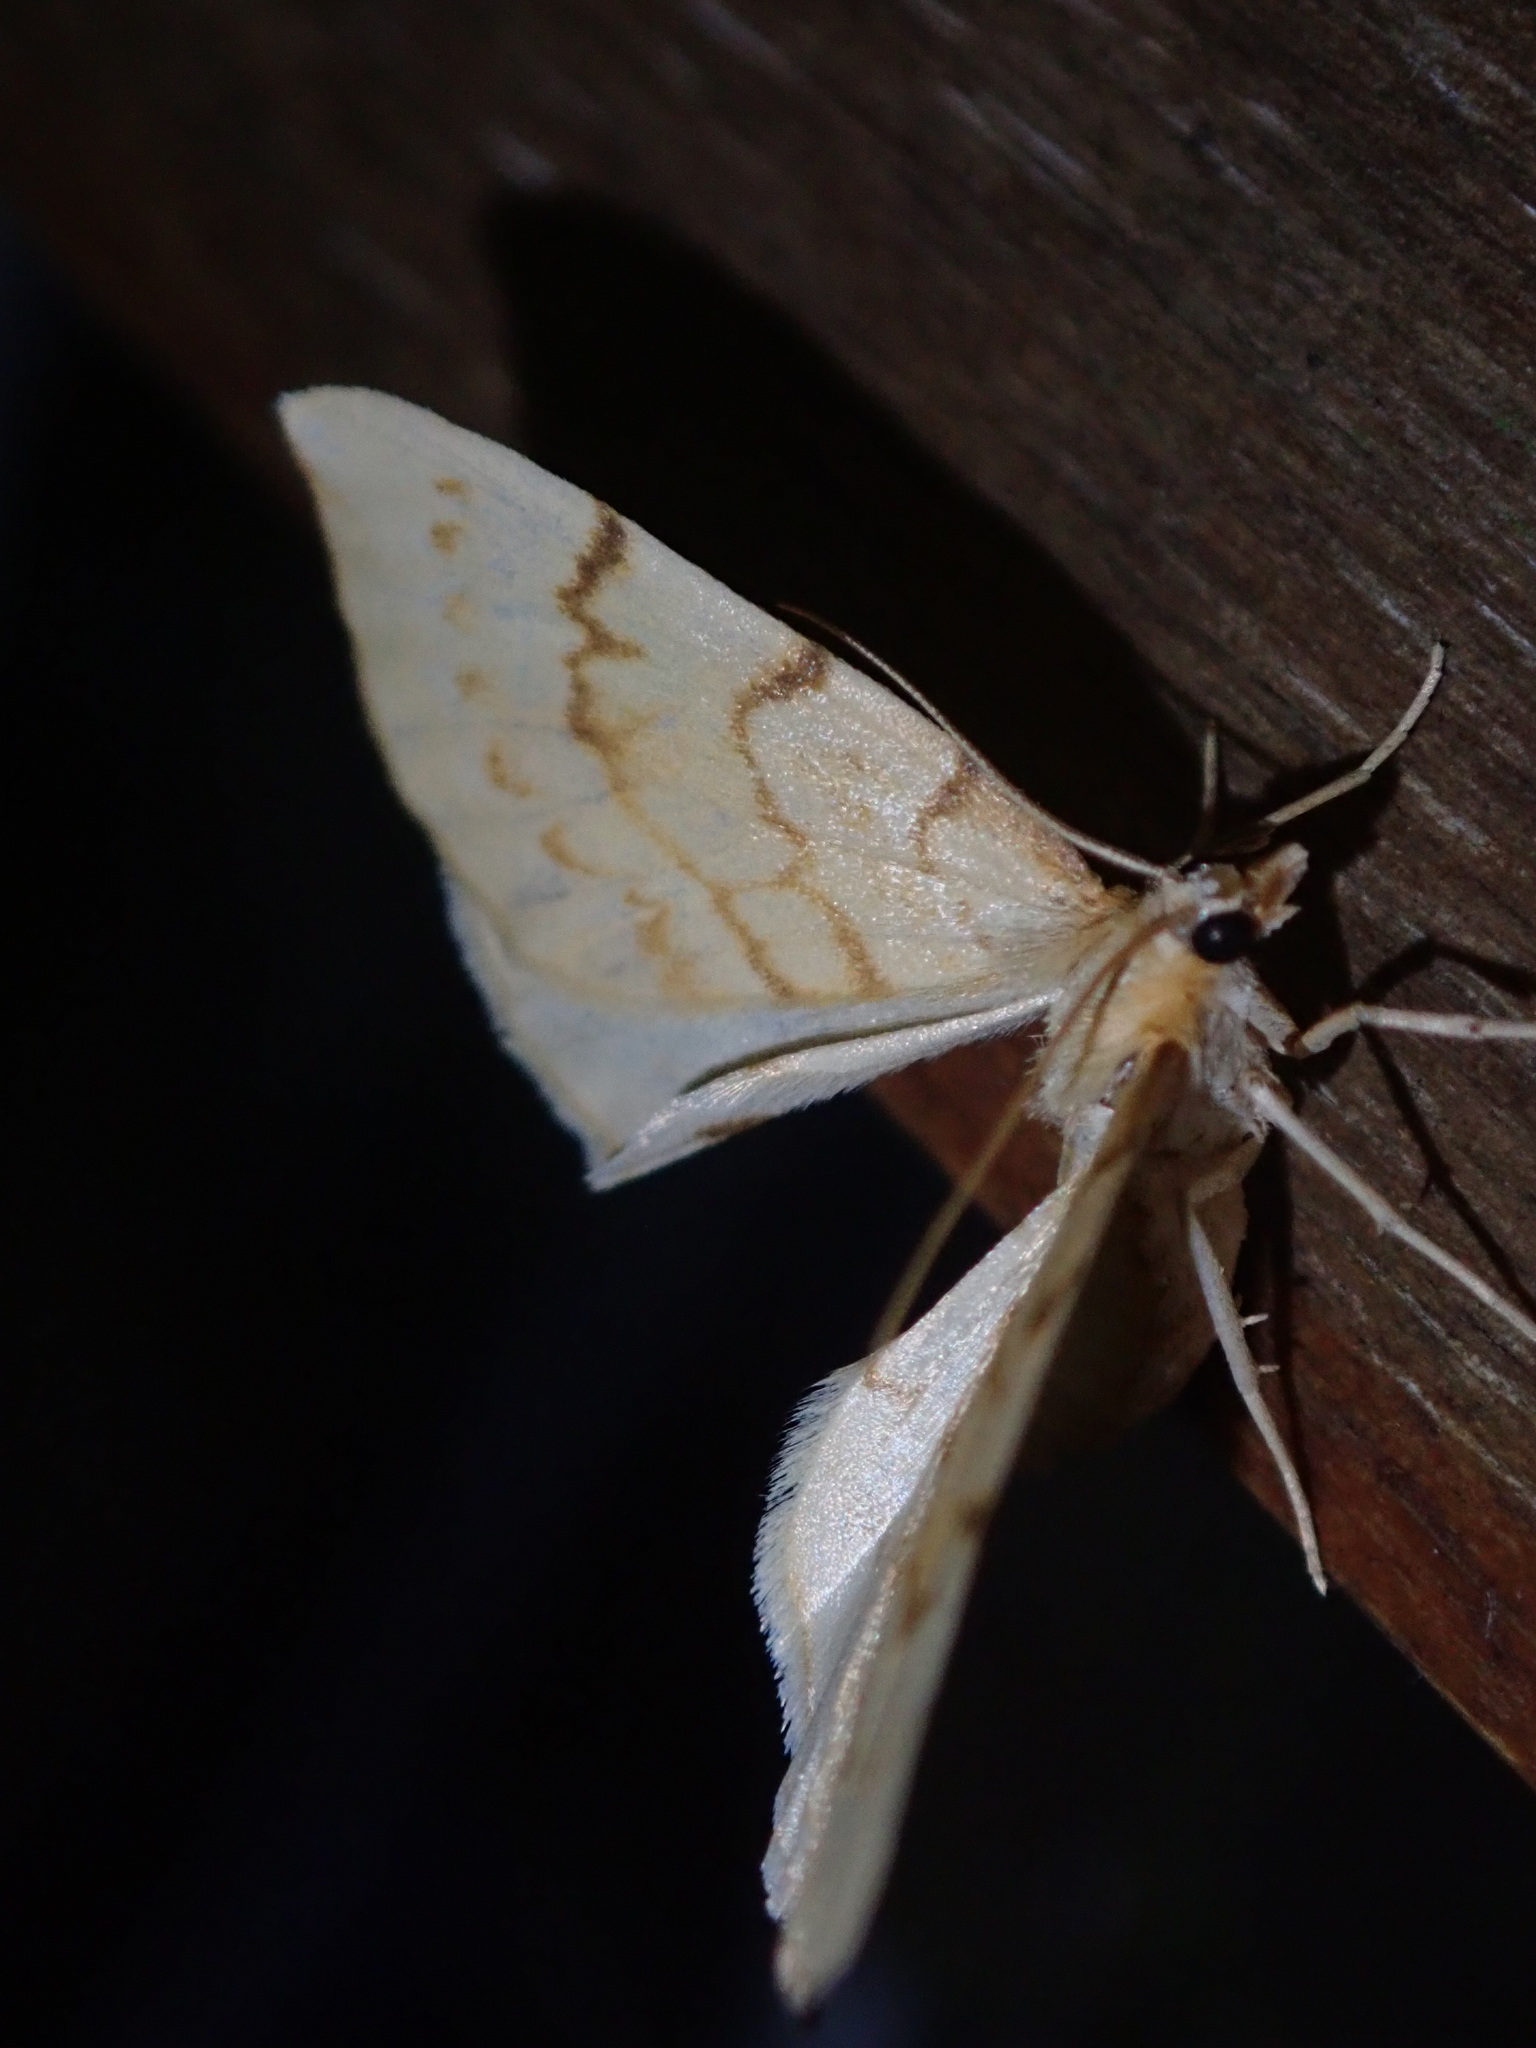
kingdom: Animalia
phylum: Arthropoda
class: Insecta
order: Lepidoptera
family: Geometridae
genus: Eulithis
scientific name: Eulithis pyraliata
